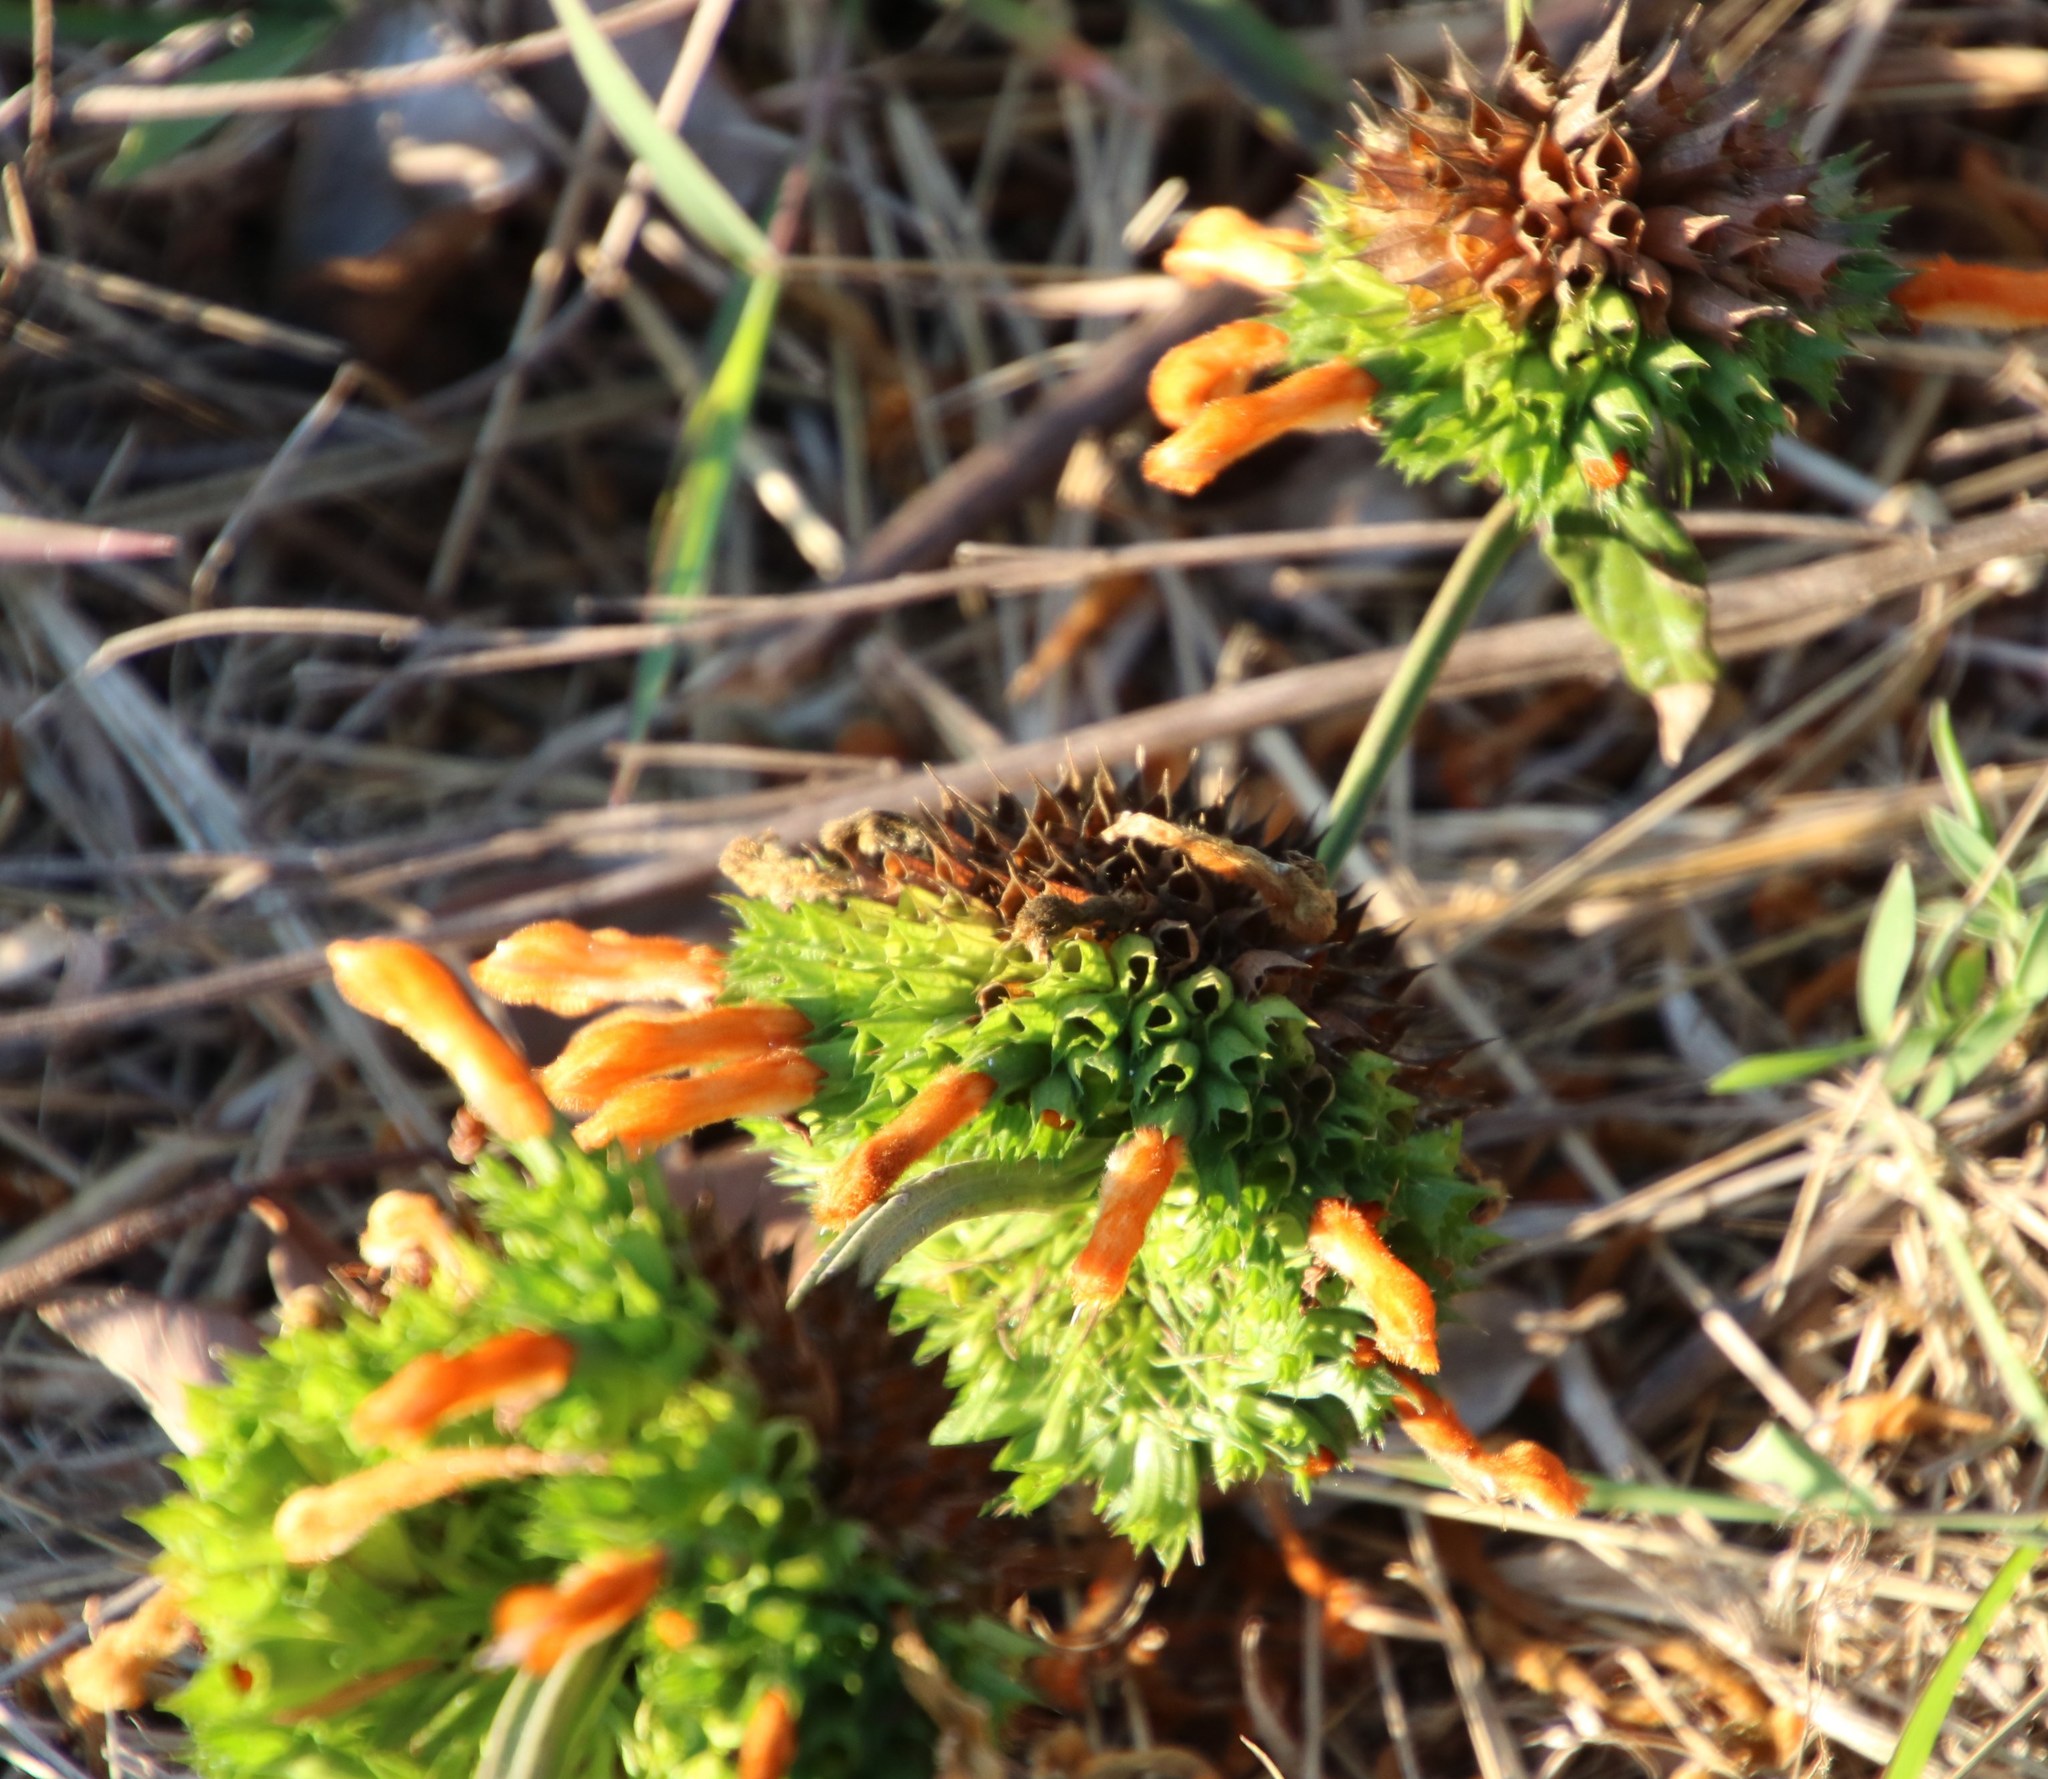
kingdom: Plantae
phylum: Tracheophyta
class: Magnoliopsida
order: Lamiales
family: Lamiaceae
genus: Leonotis
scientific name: Leonotis ocymifolia
